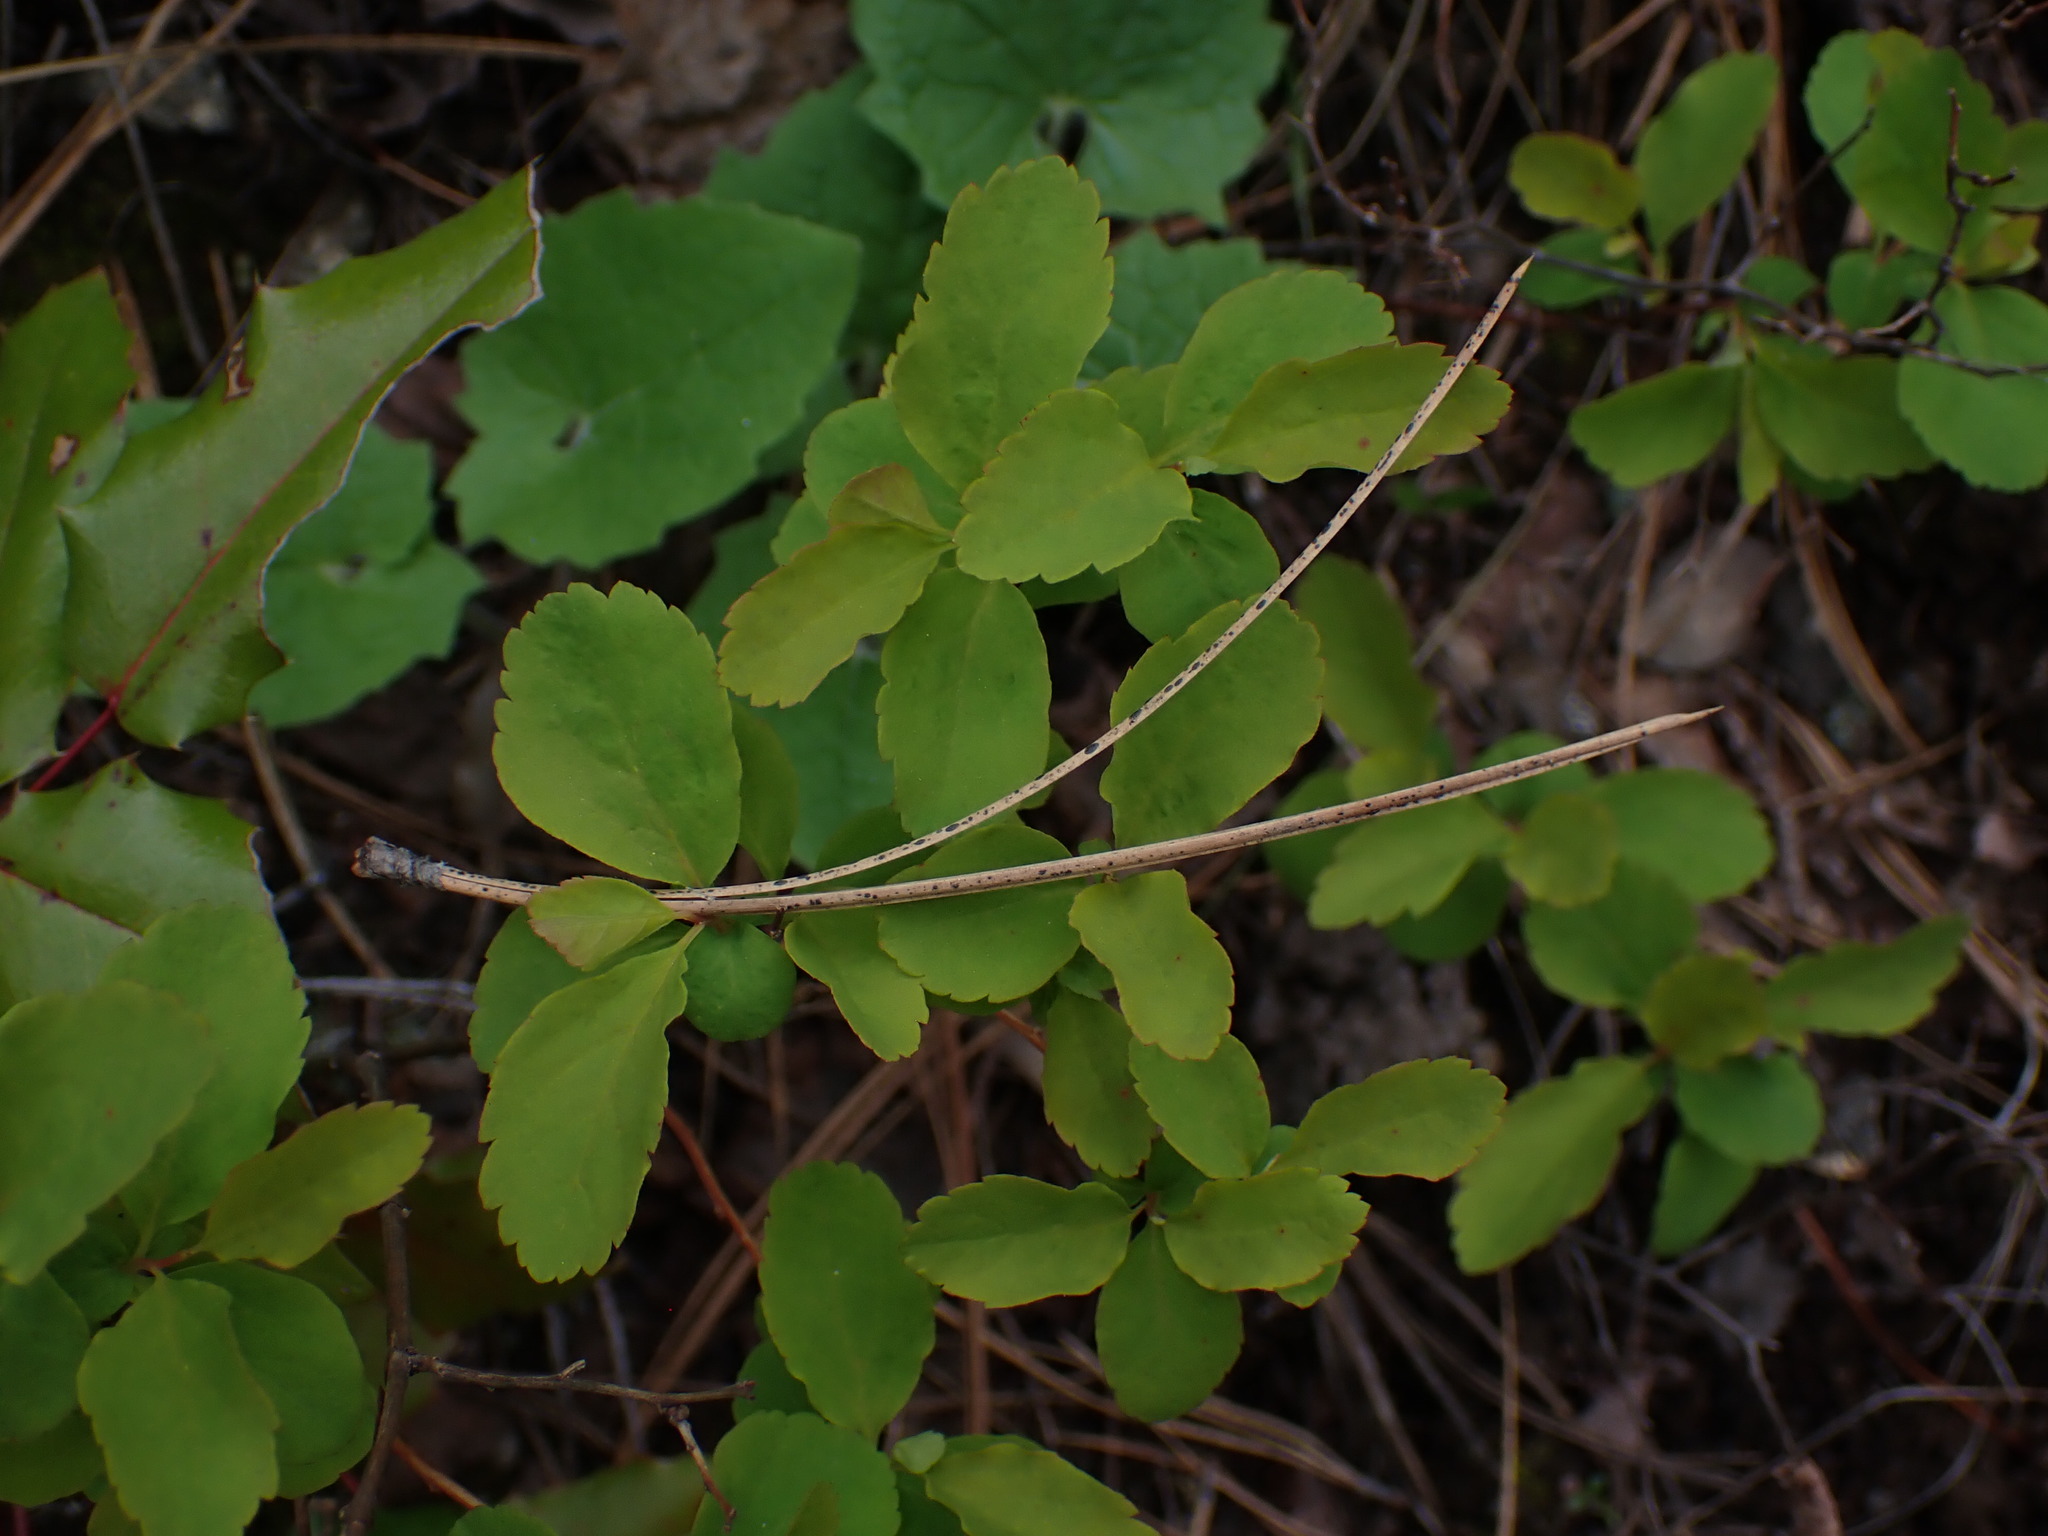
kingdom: Plantae
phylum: Tracheophyta
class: Magnoliopsida
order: Rosales
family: Rosaceae
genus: Spiraea
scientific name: Spiraea lucida
